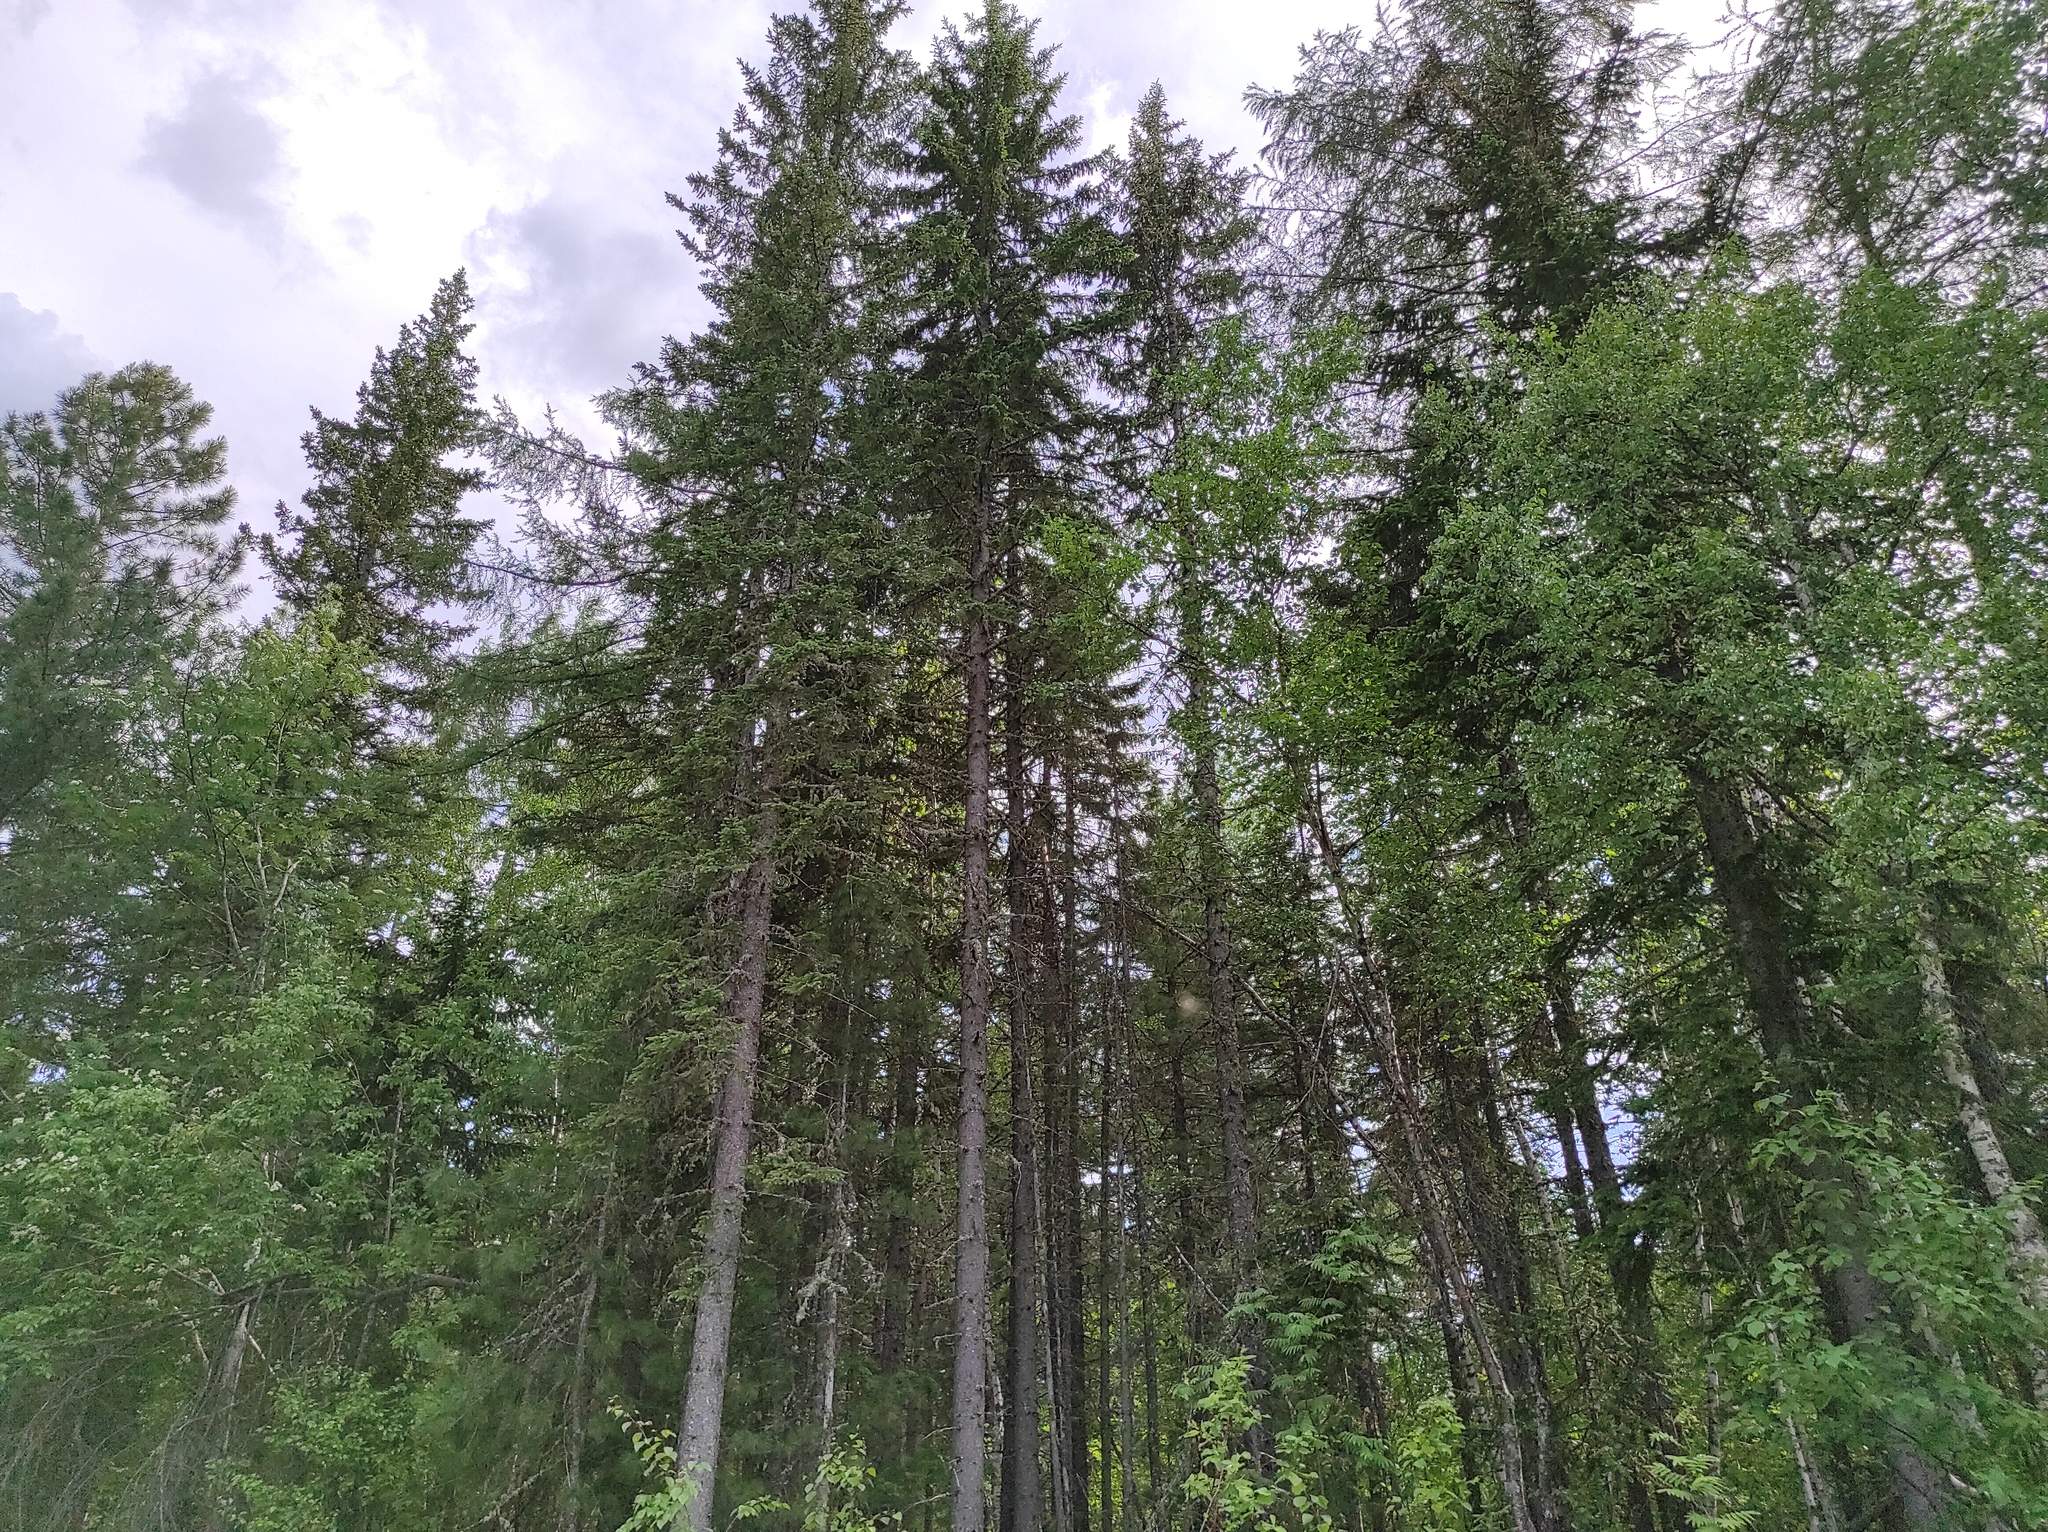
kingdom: Plantae
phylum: Tracheophyta
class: Pinopsida
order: Pinales
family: Pinaceae
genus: Picea
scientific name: Picea obovata
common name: Siberian spruce
